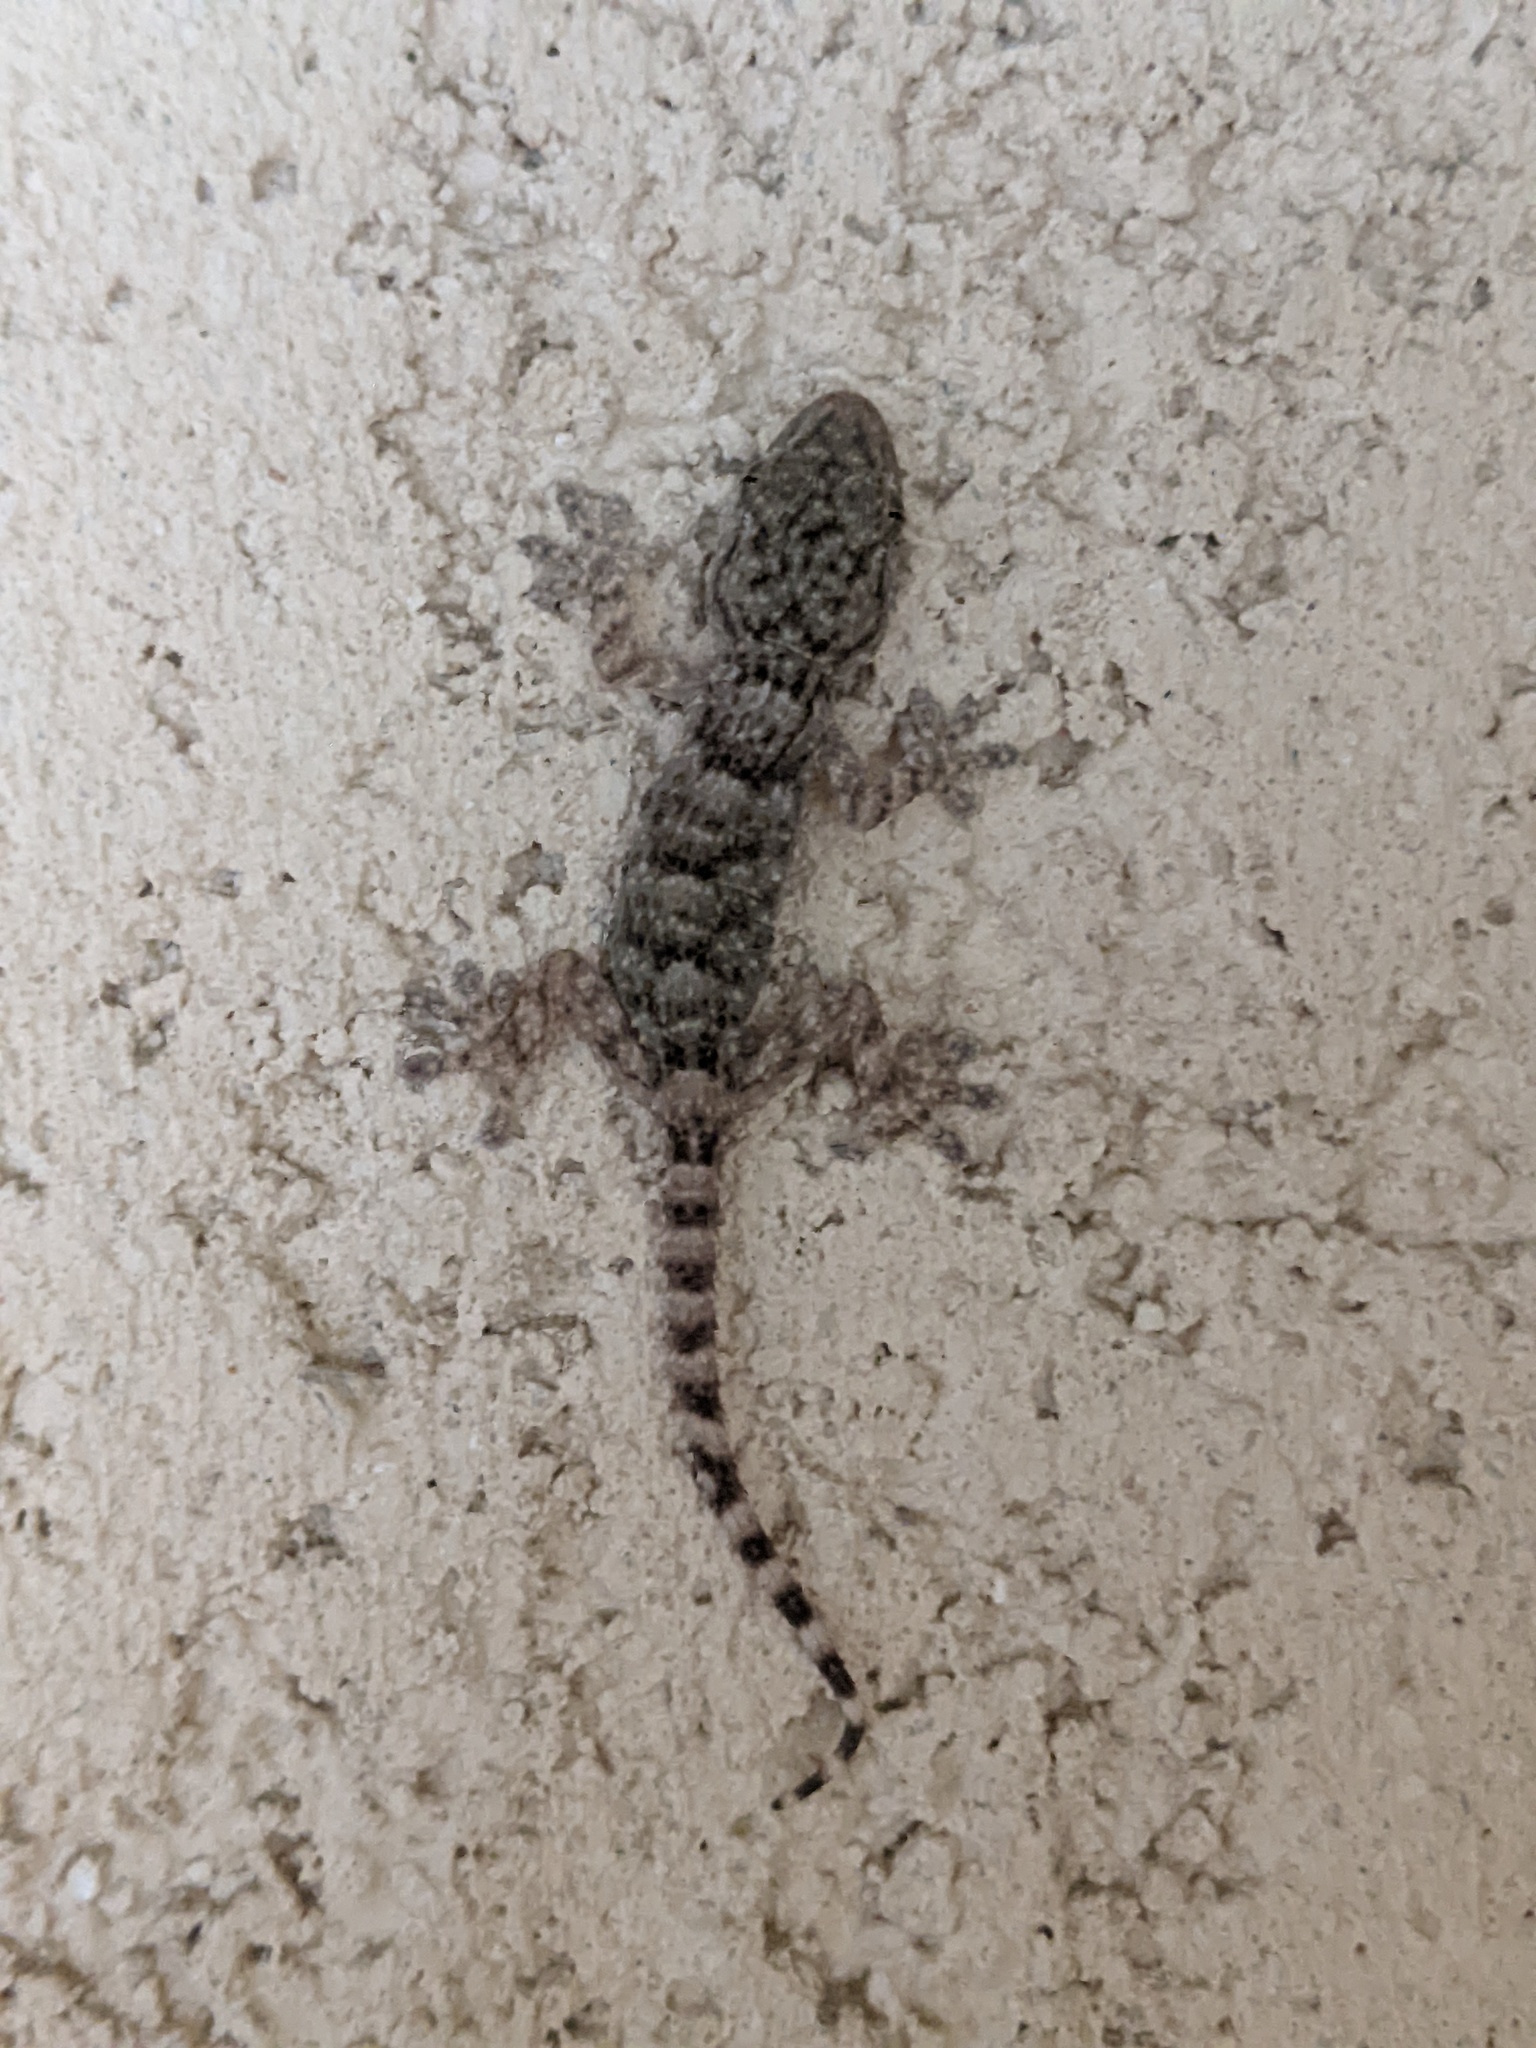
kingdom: Animalia
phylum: Chordata
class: Squamata
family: Phyllodactylidae
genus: Tarentola
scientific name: Tarentola mauritanica
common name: Moorish gecko
